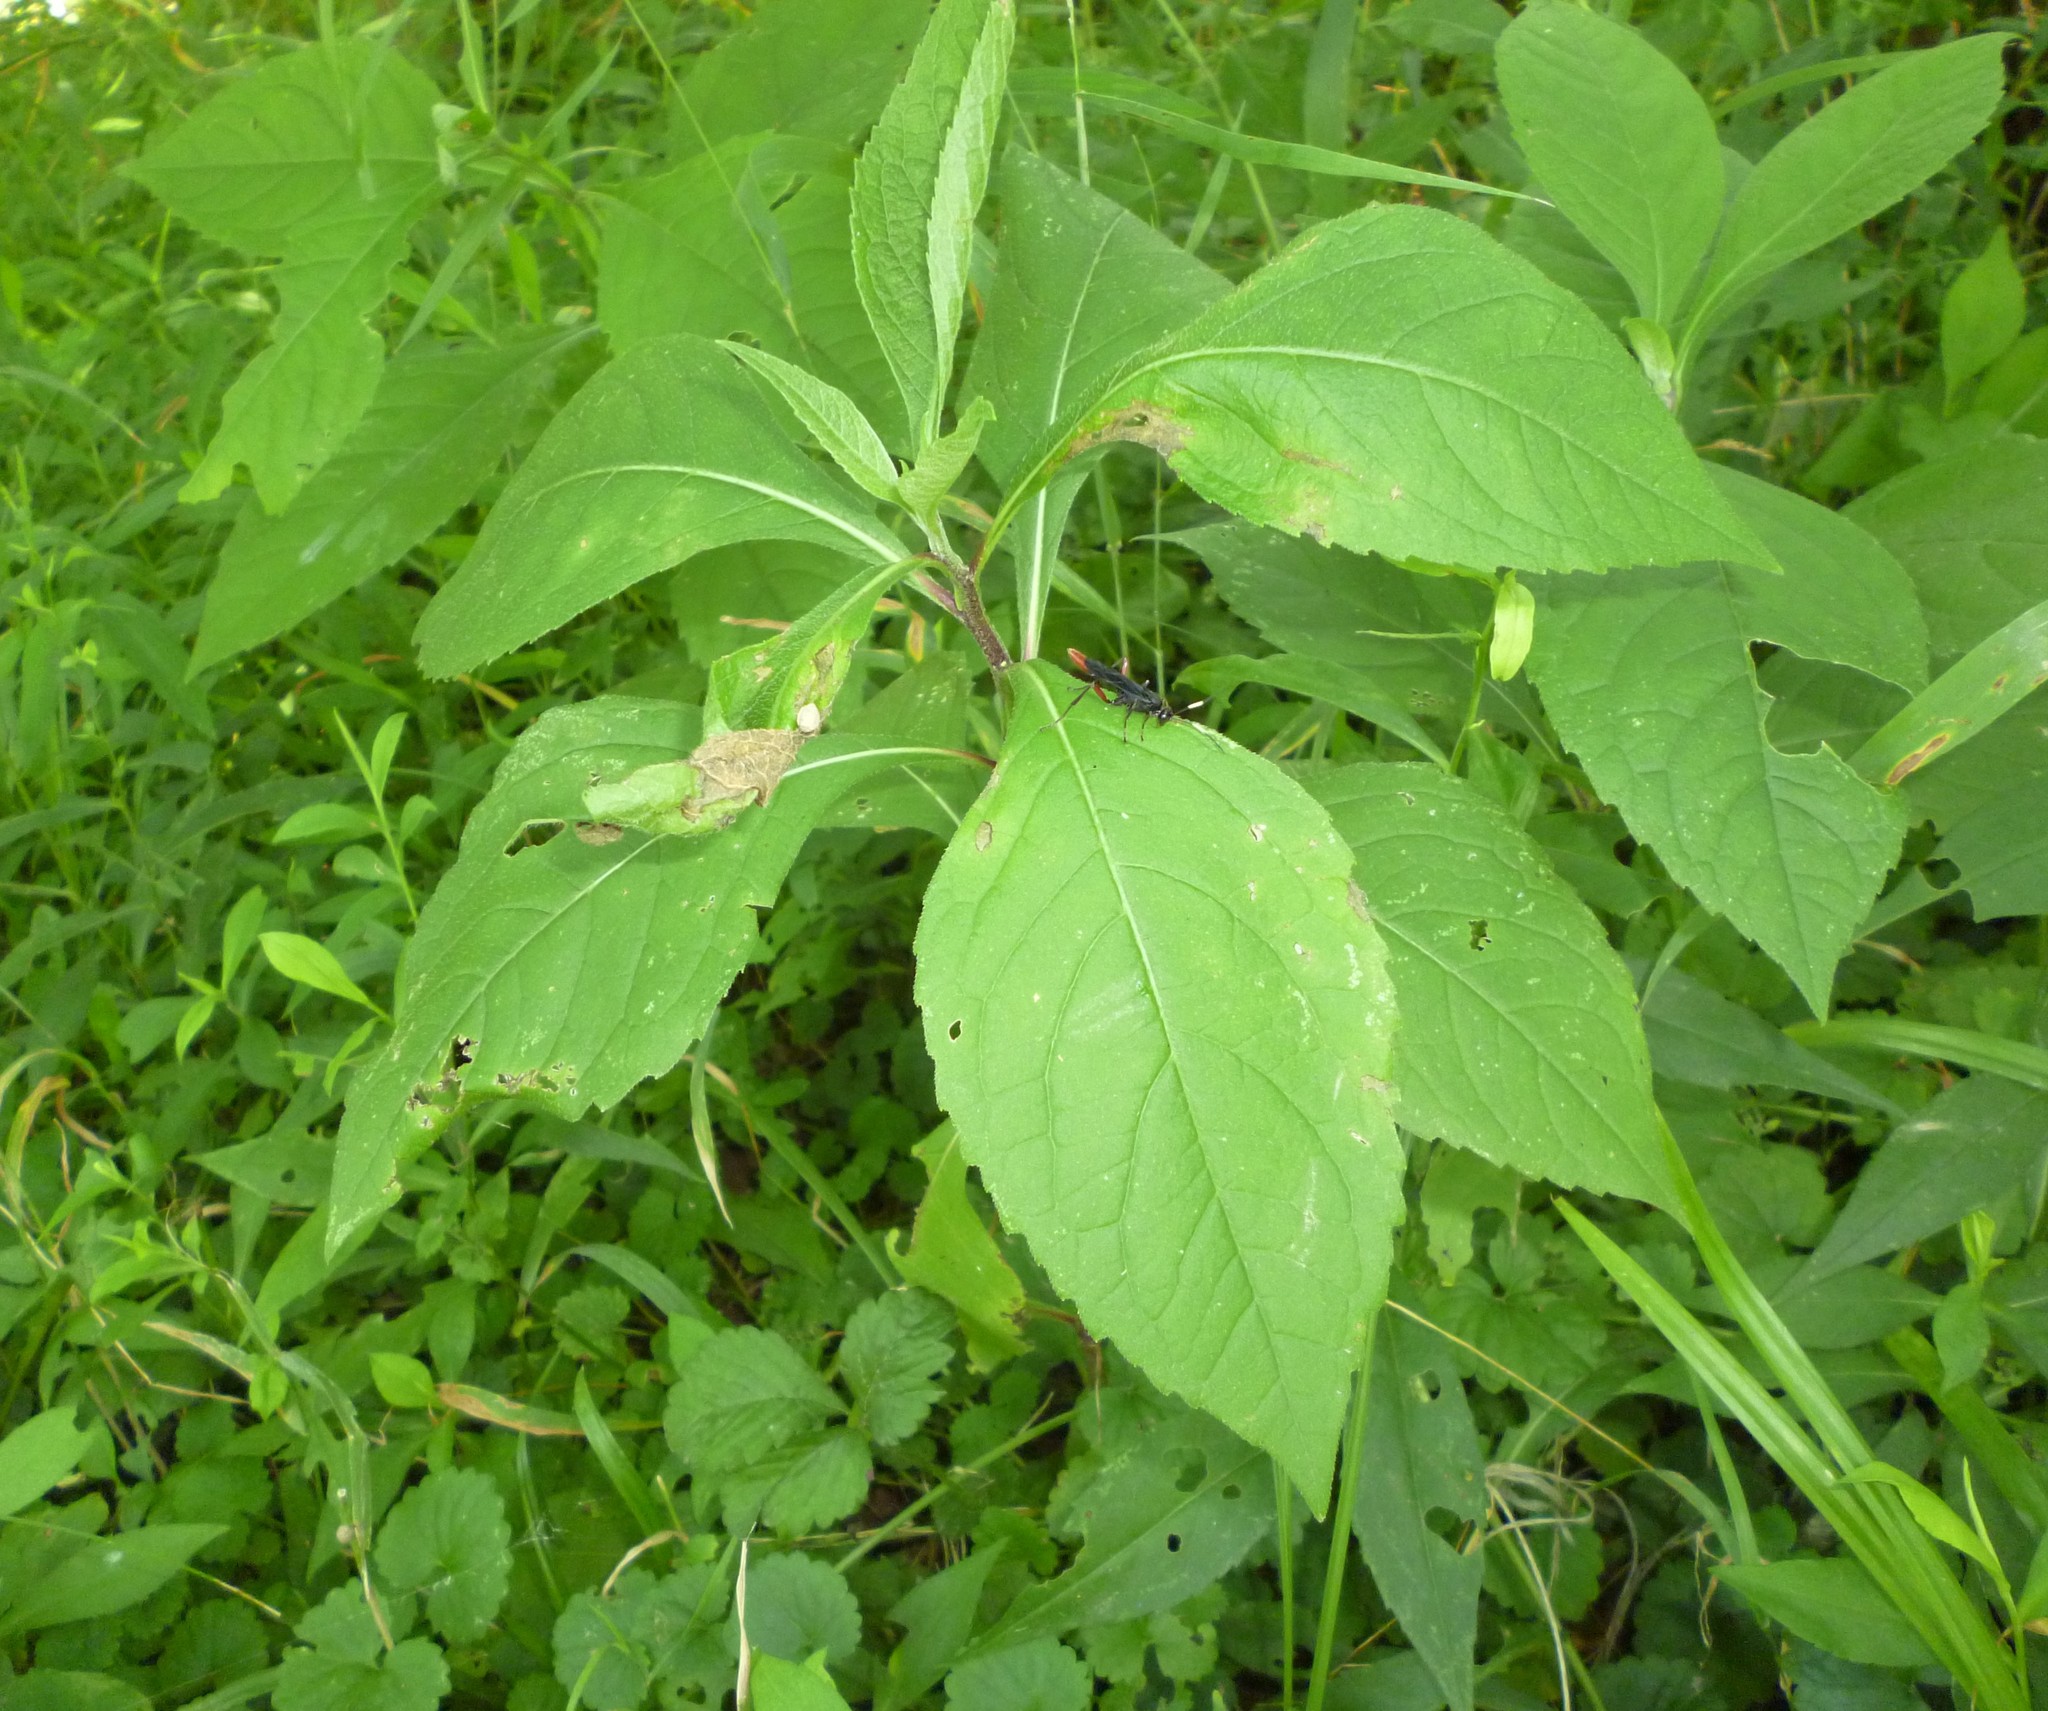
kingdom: Plantae
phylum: Tracheophyta
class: Magnoliopsida
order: Asterales
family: Asteraceae
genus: Verbesina
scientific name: Verbesina alternifolia
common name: Wingstem
